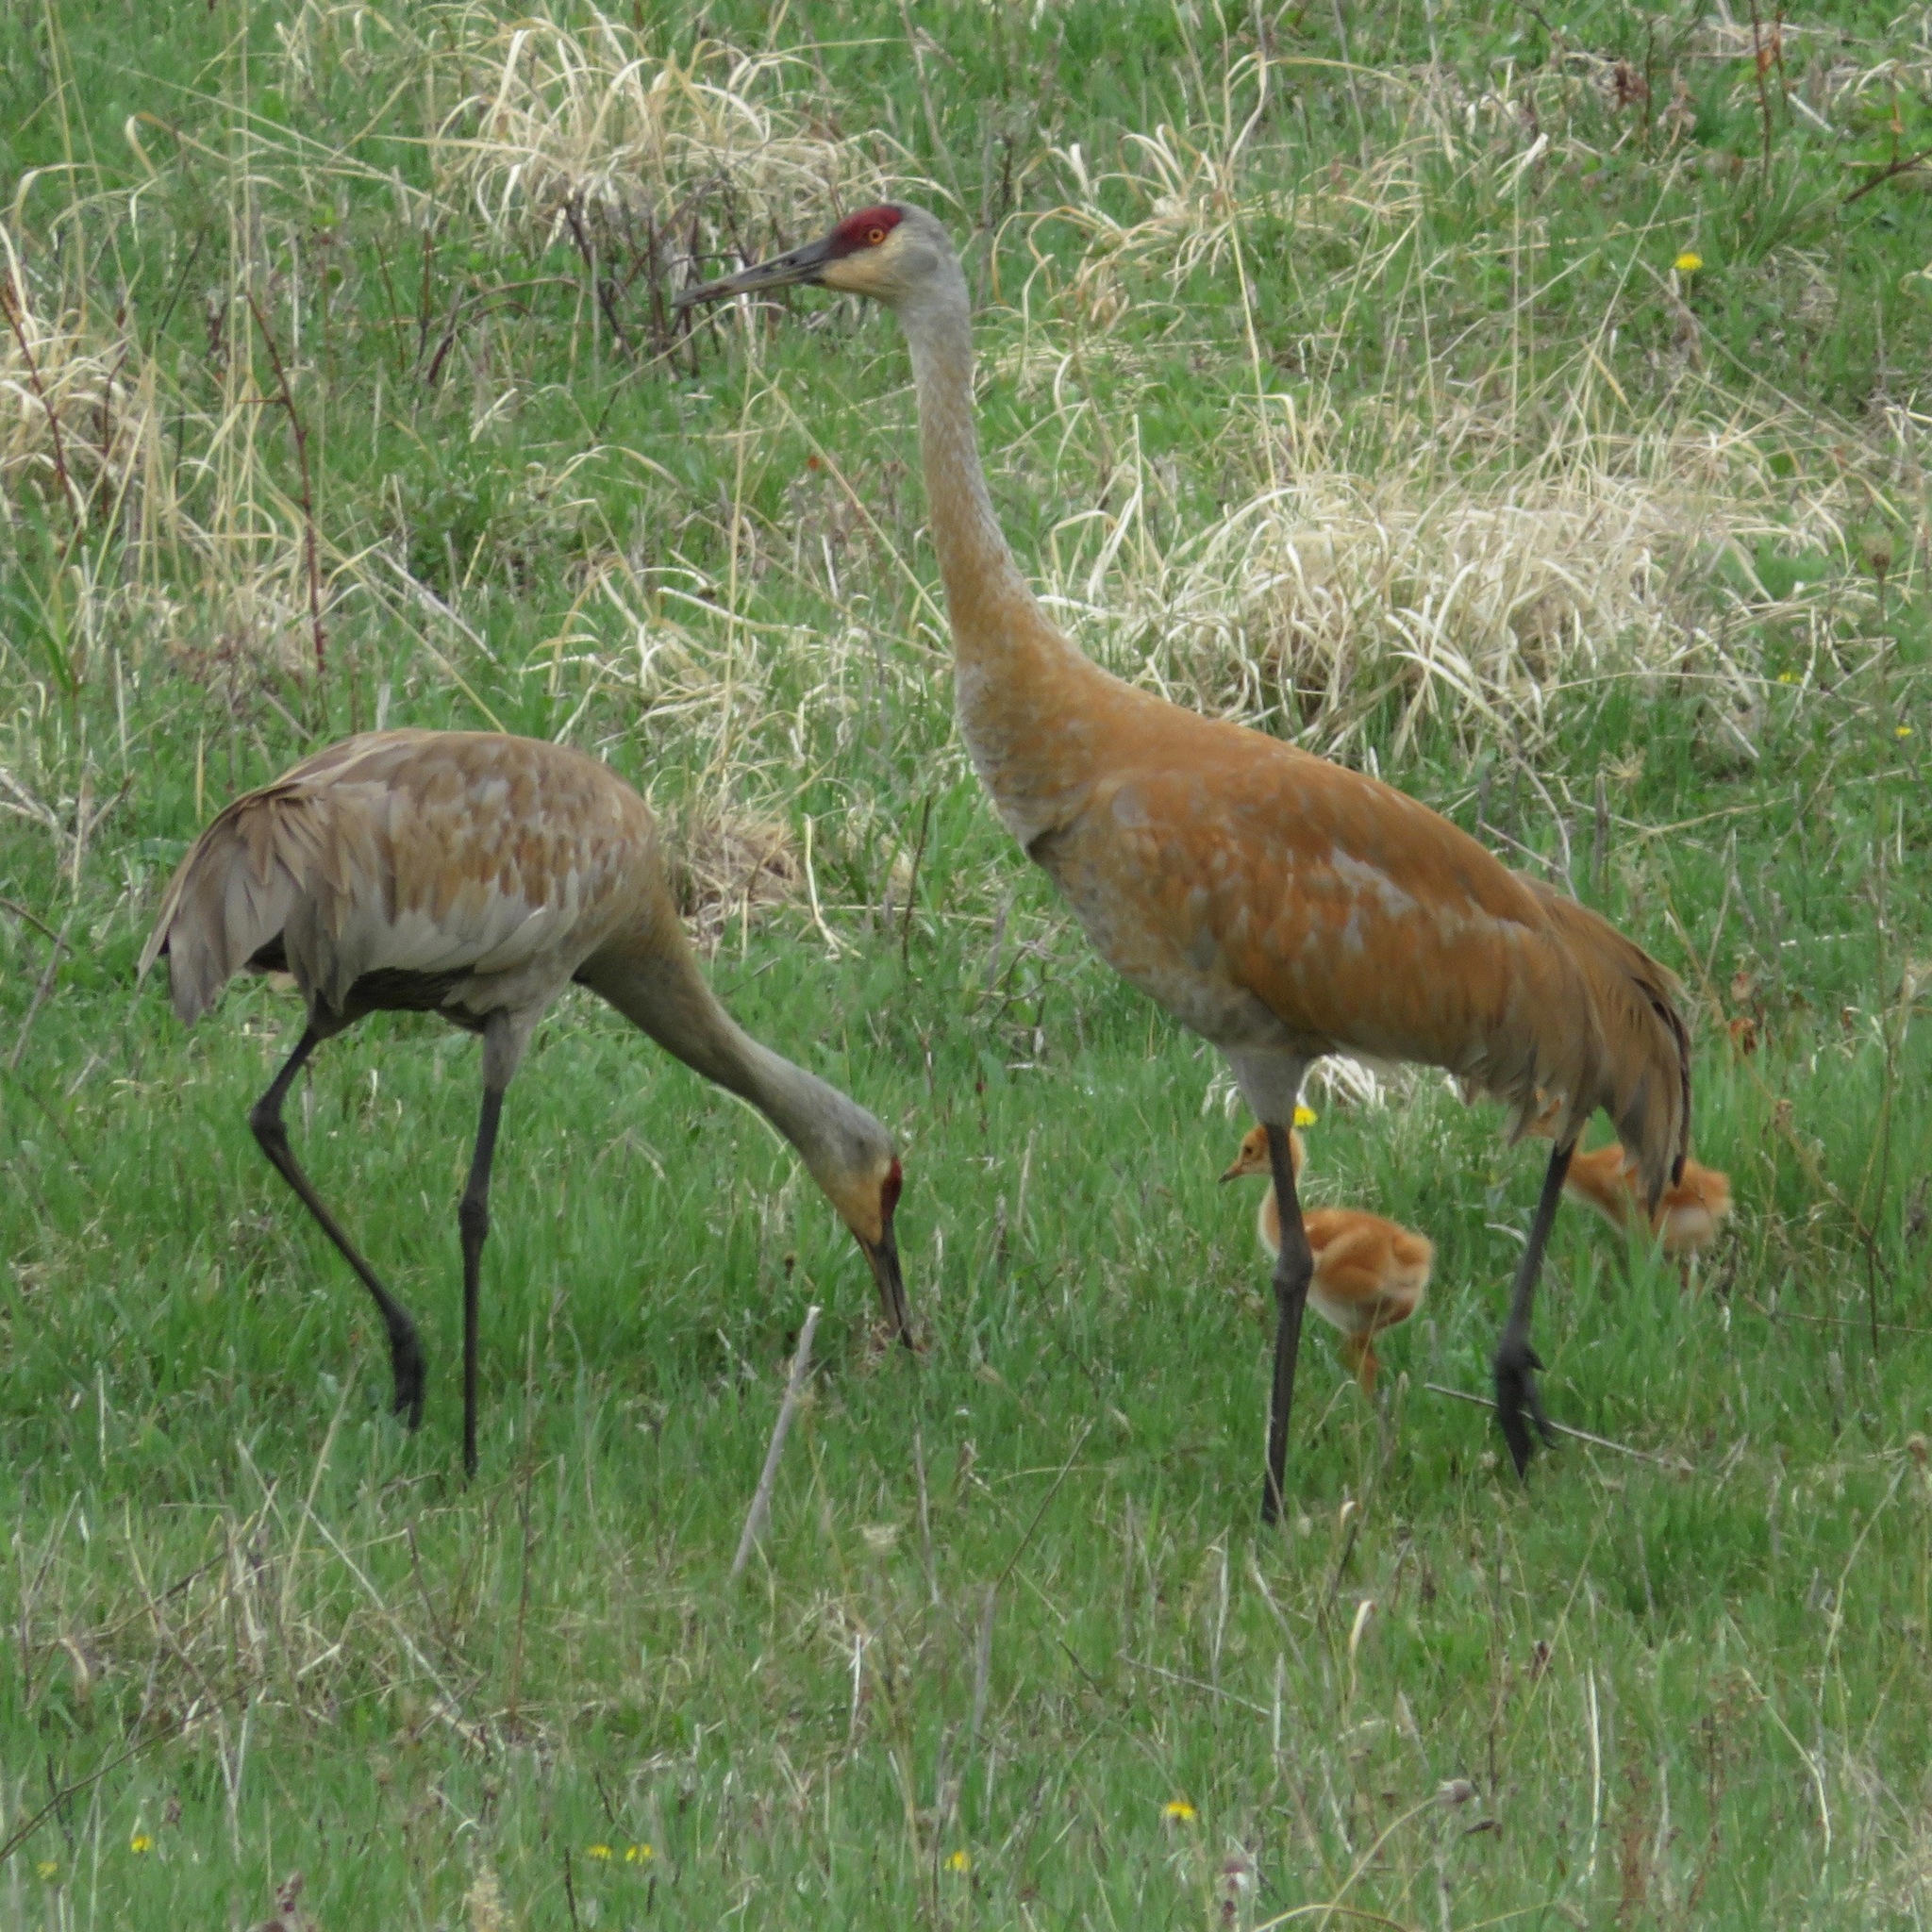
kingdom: Animalia
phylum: Chordata
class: Aves
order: Gruiformes
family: Gruidae
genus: Grus
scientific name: Grus canadensis
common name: Sandhill crane
